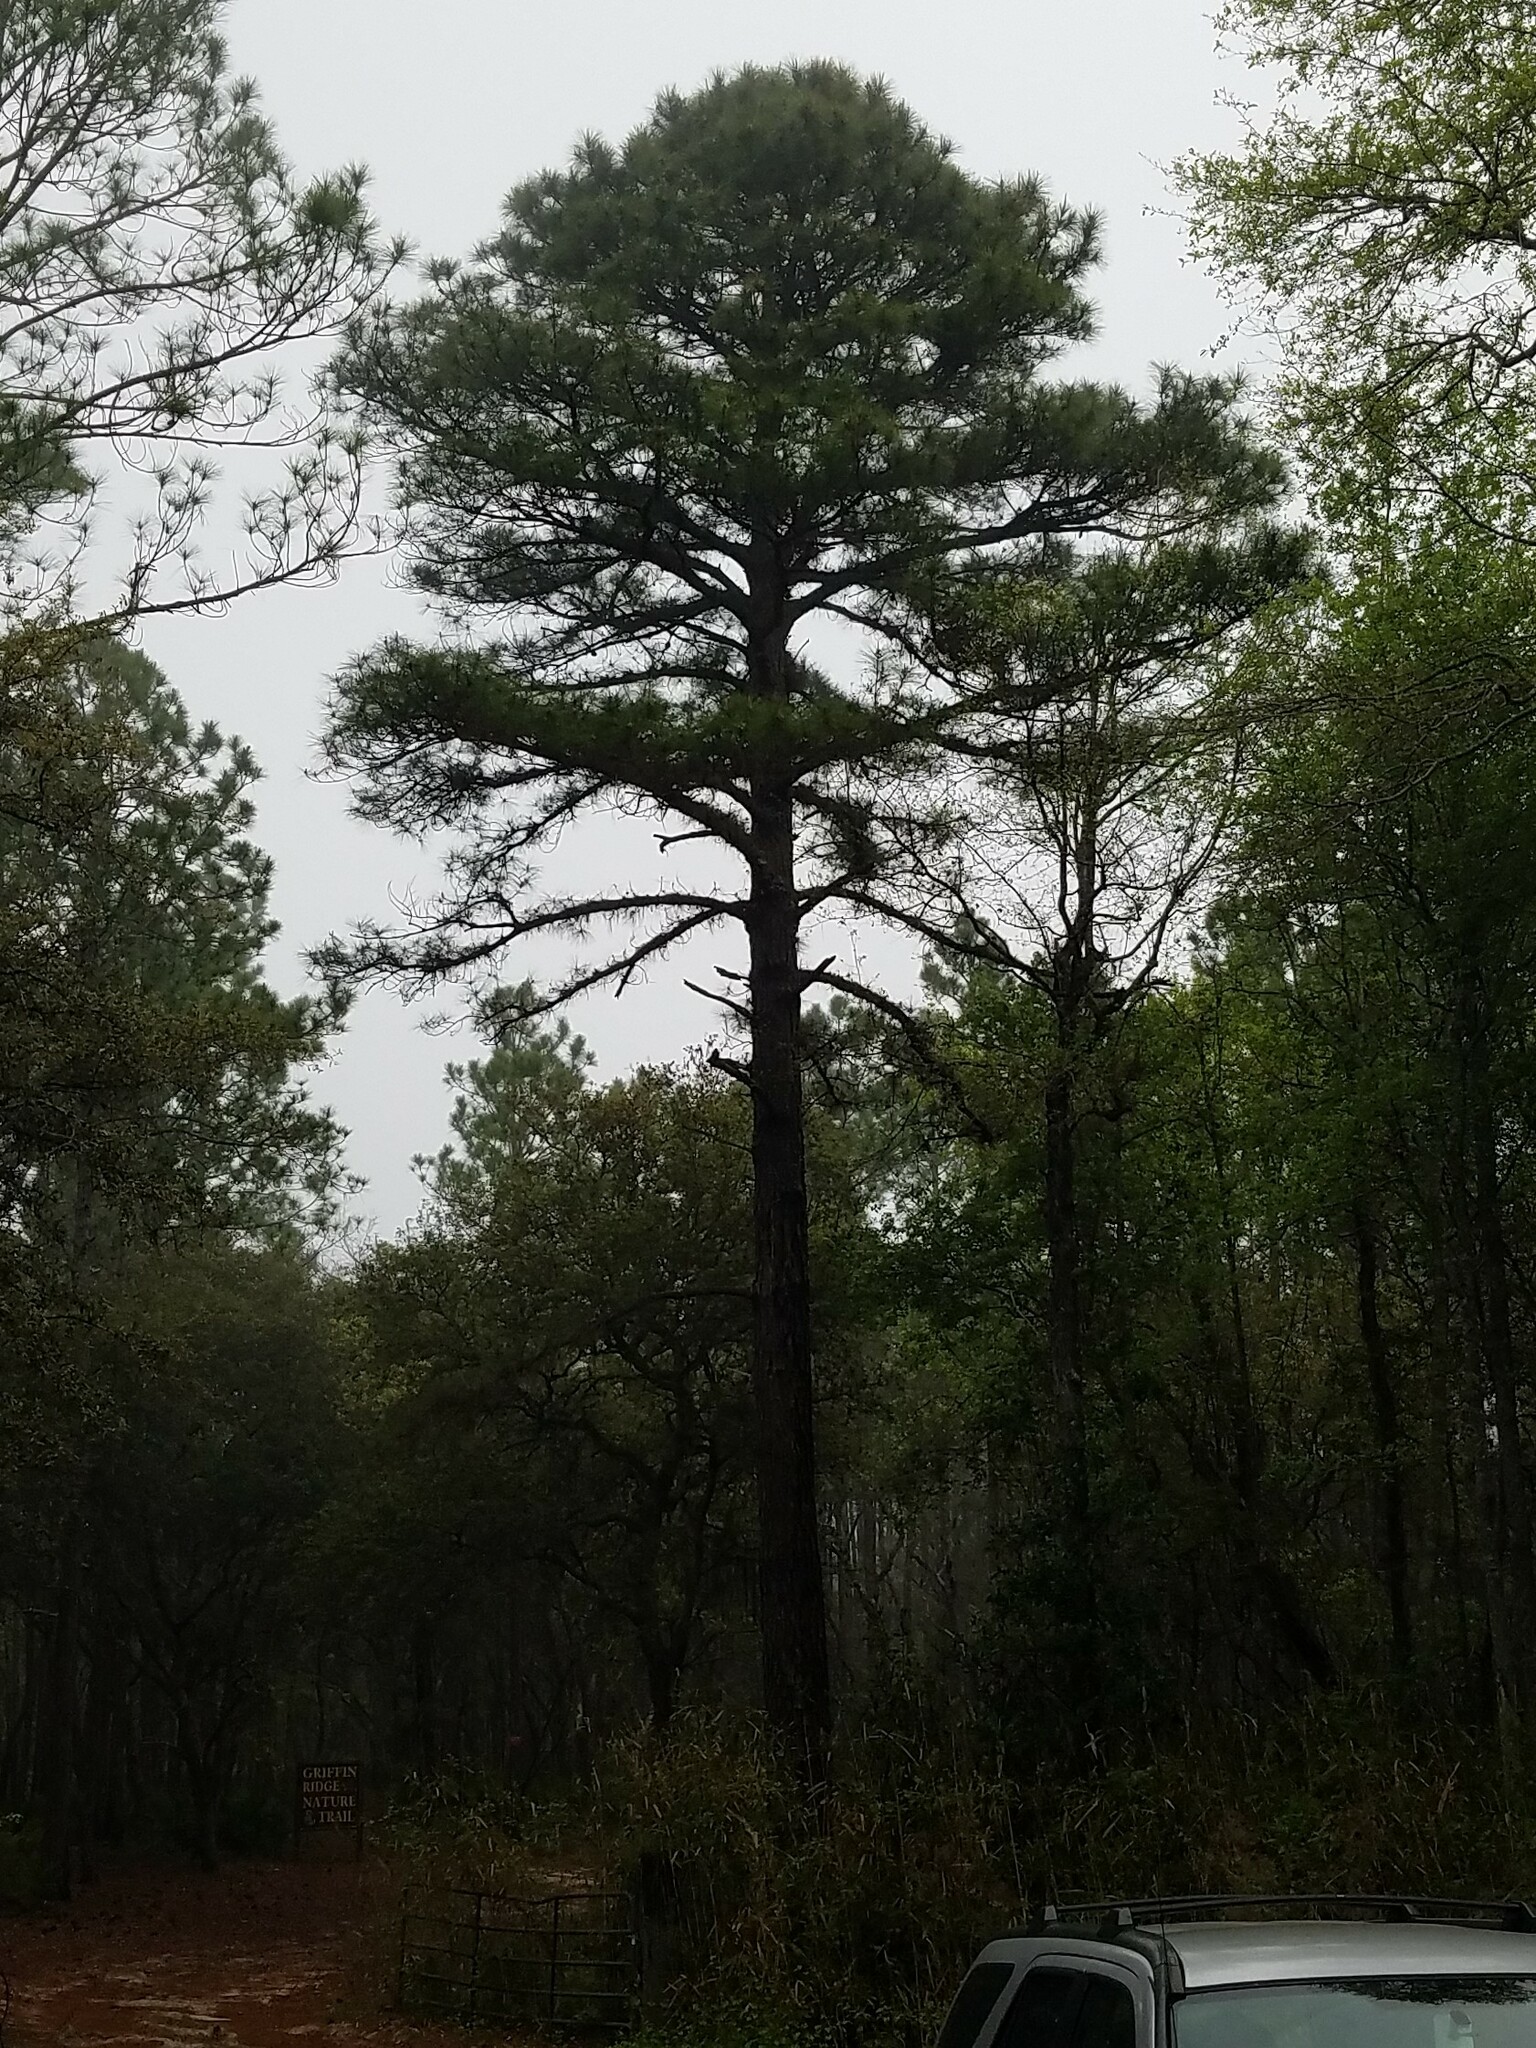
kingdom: Plantae
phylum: Tracheophyta
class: Pinopsida
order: Pinales
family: Pinaceae
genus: Pinus
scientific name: Pinus serotina
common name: Marsh pine
